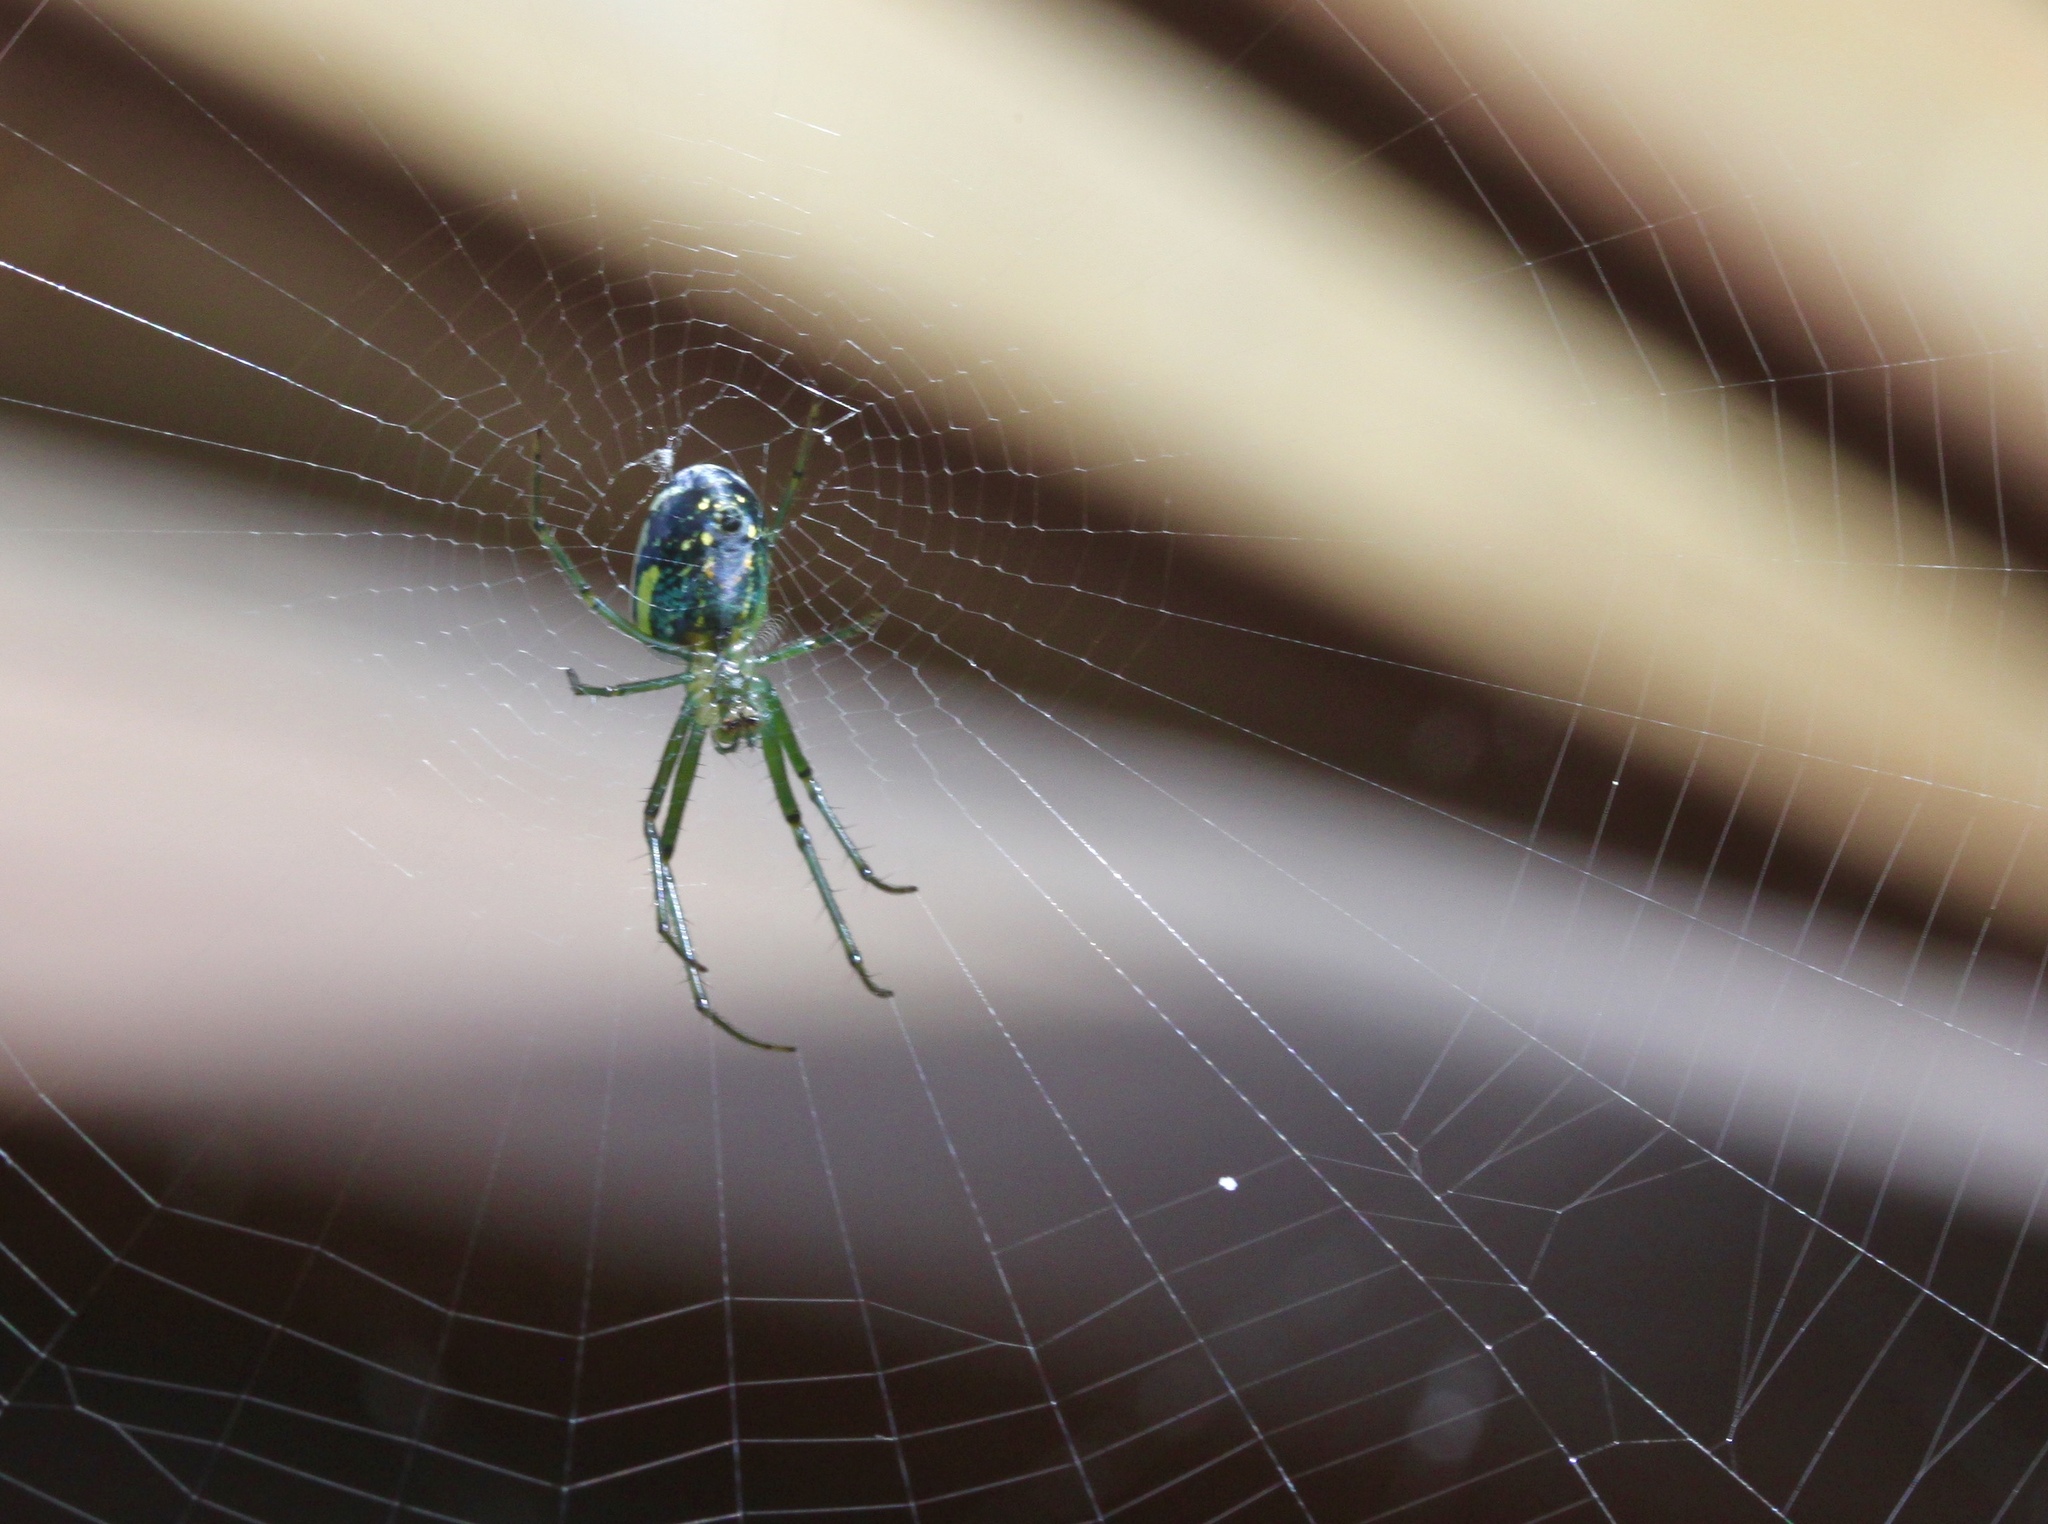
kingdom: Animalia
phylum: Arthropoda
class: Arachnida
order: Araneae
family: Tetragnathidae
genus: Leucauge
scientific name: Leucauge venusta
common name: Longjawed orb weavers
